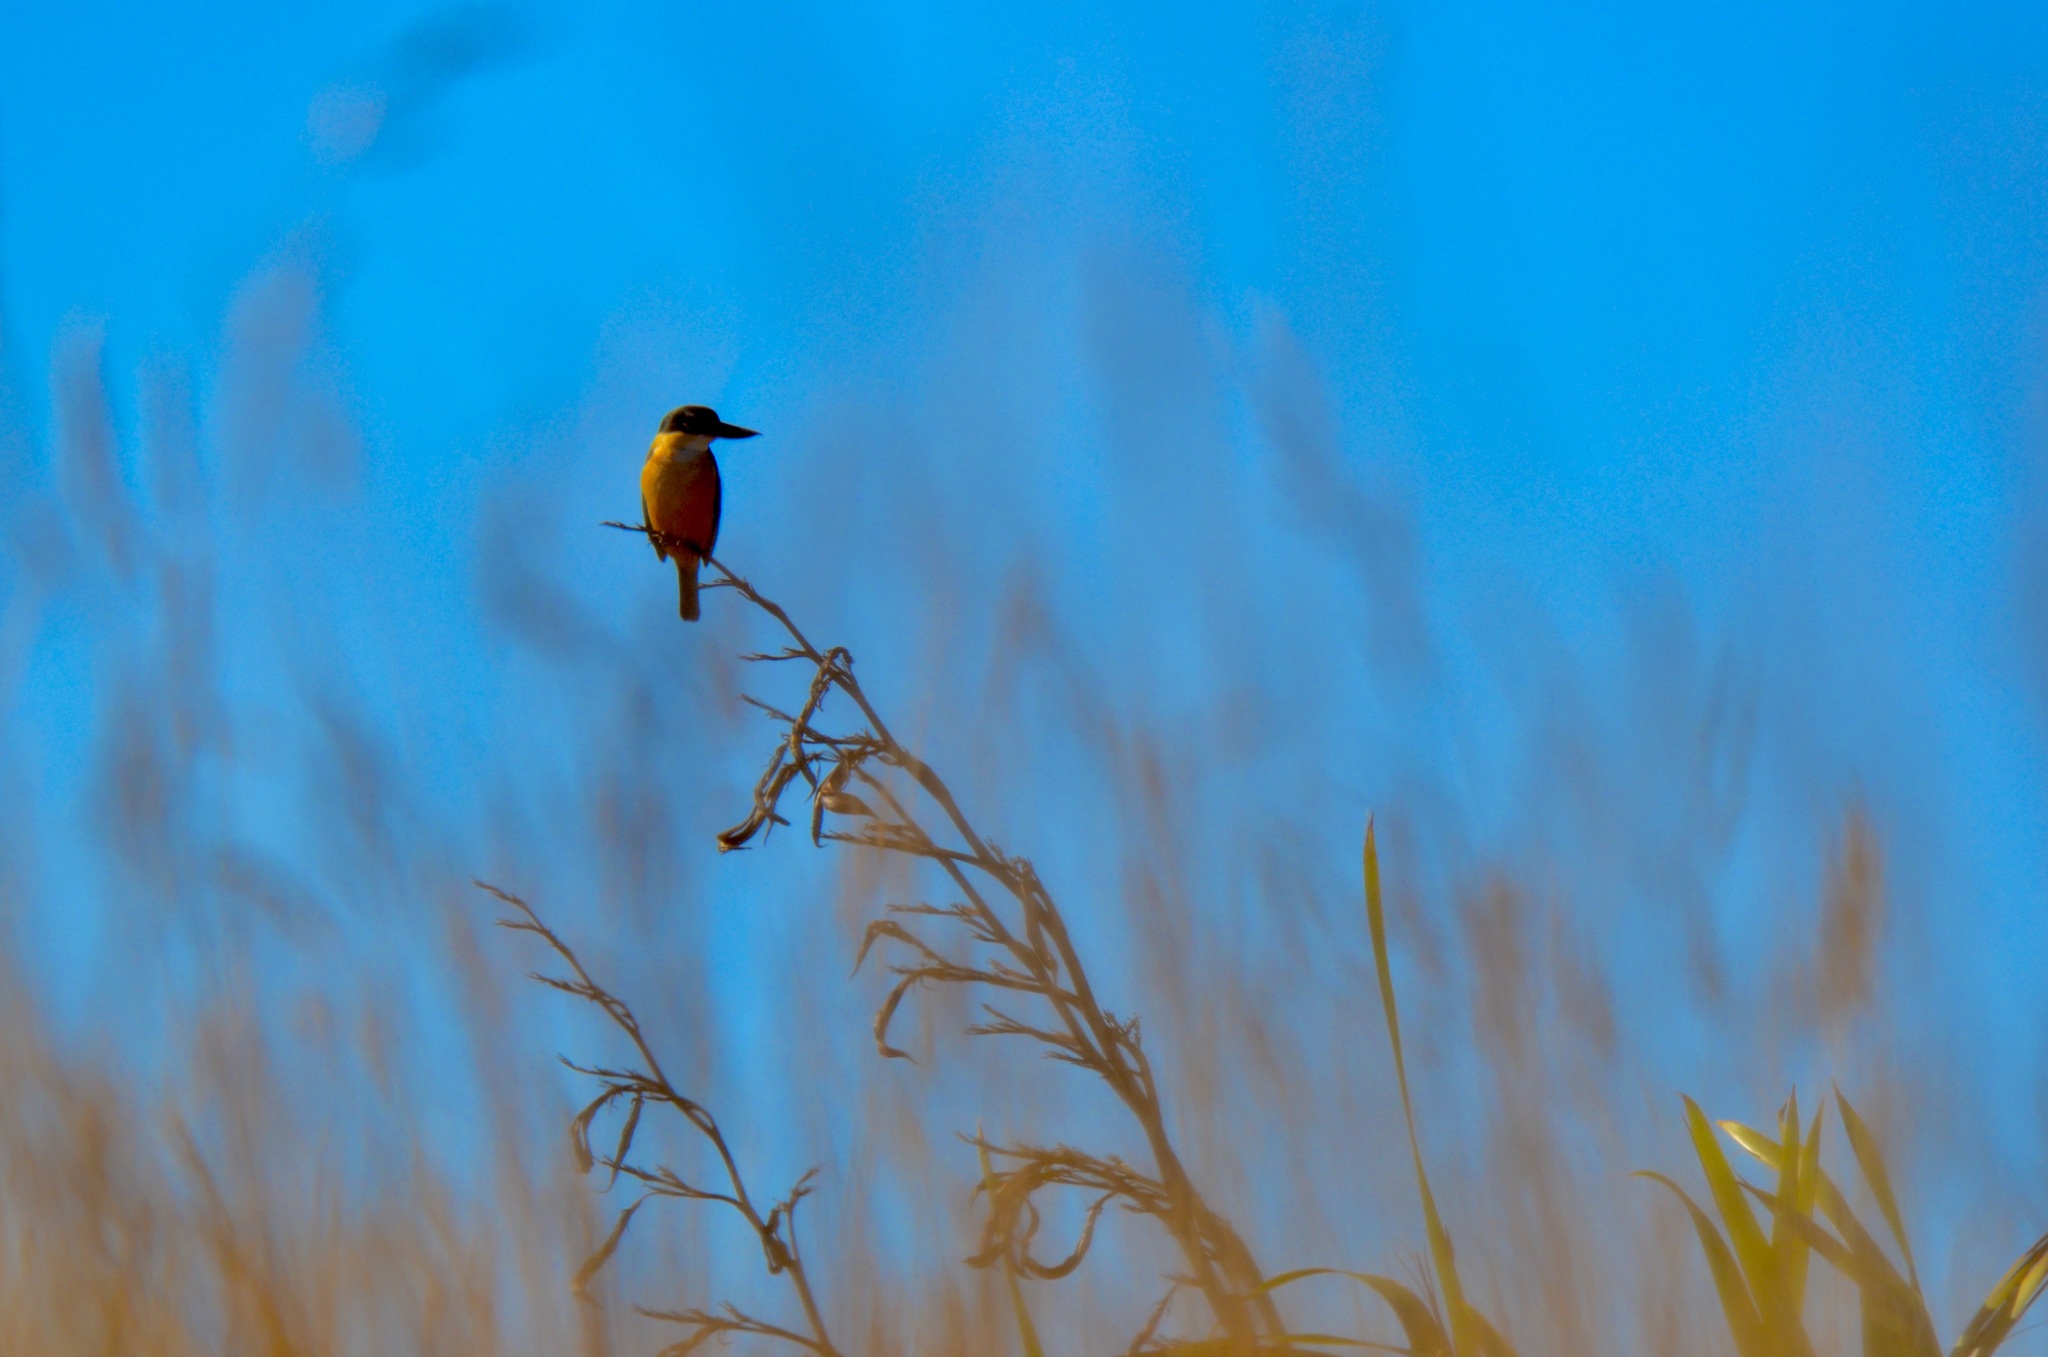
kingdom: Animalia
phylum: Chordata
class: Aves
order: Coraciiformes
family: Alcedinidae
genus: Todiramphus
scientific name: Todiramphus sanctus
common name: Sacred kingfisher
